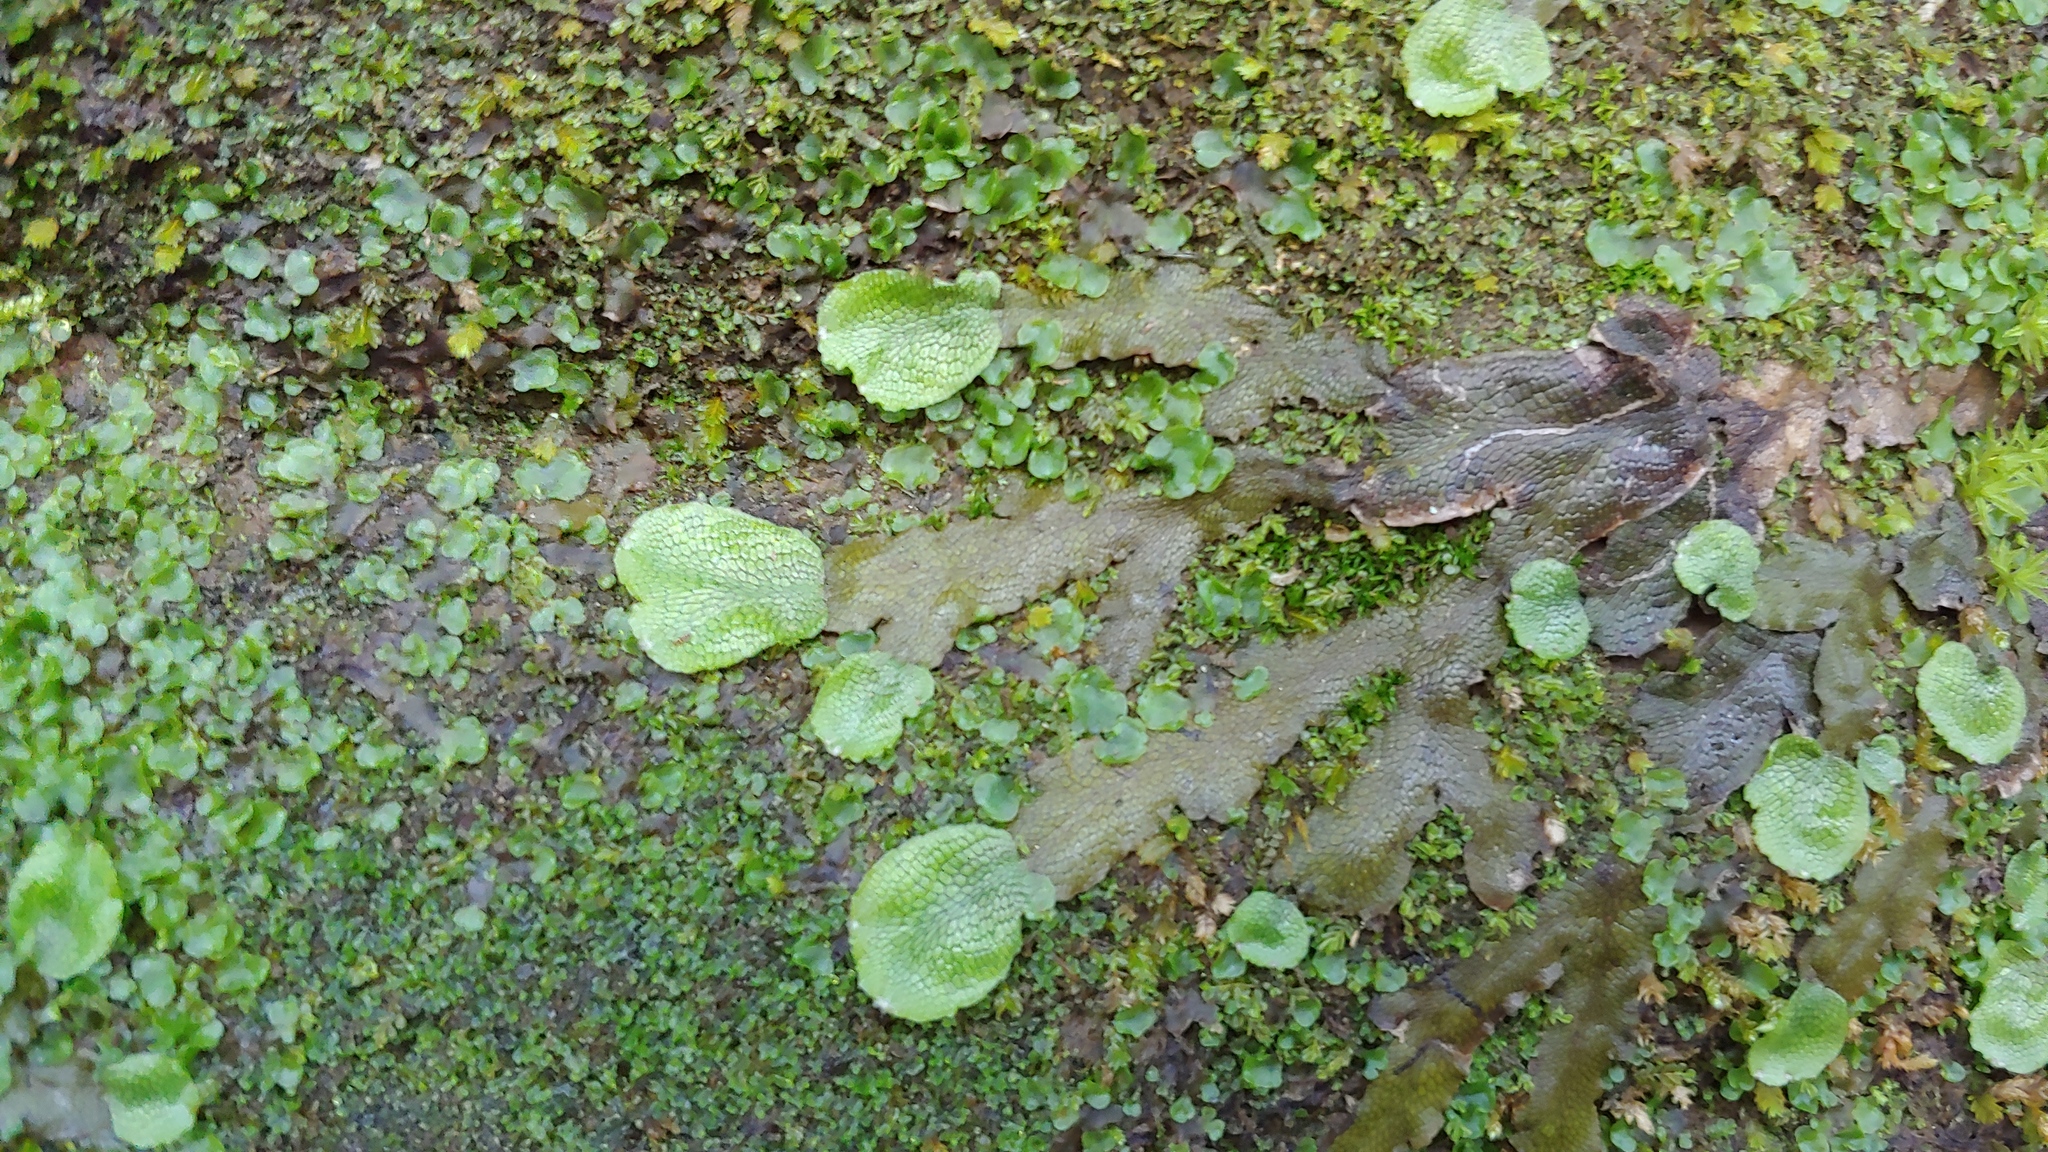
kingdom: Plantae
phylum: Marchantiophyta
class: Marchantiopsida
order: Marchantiales
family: Conocephalaceae
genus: Conocephalum
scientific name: Conocephalum salebrosum
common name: Cat-tongue liverwort
